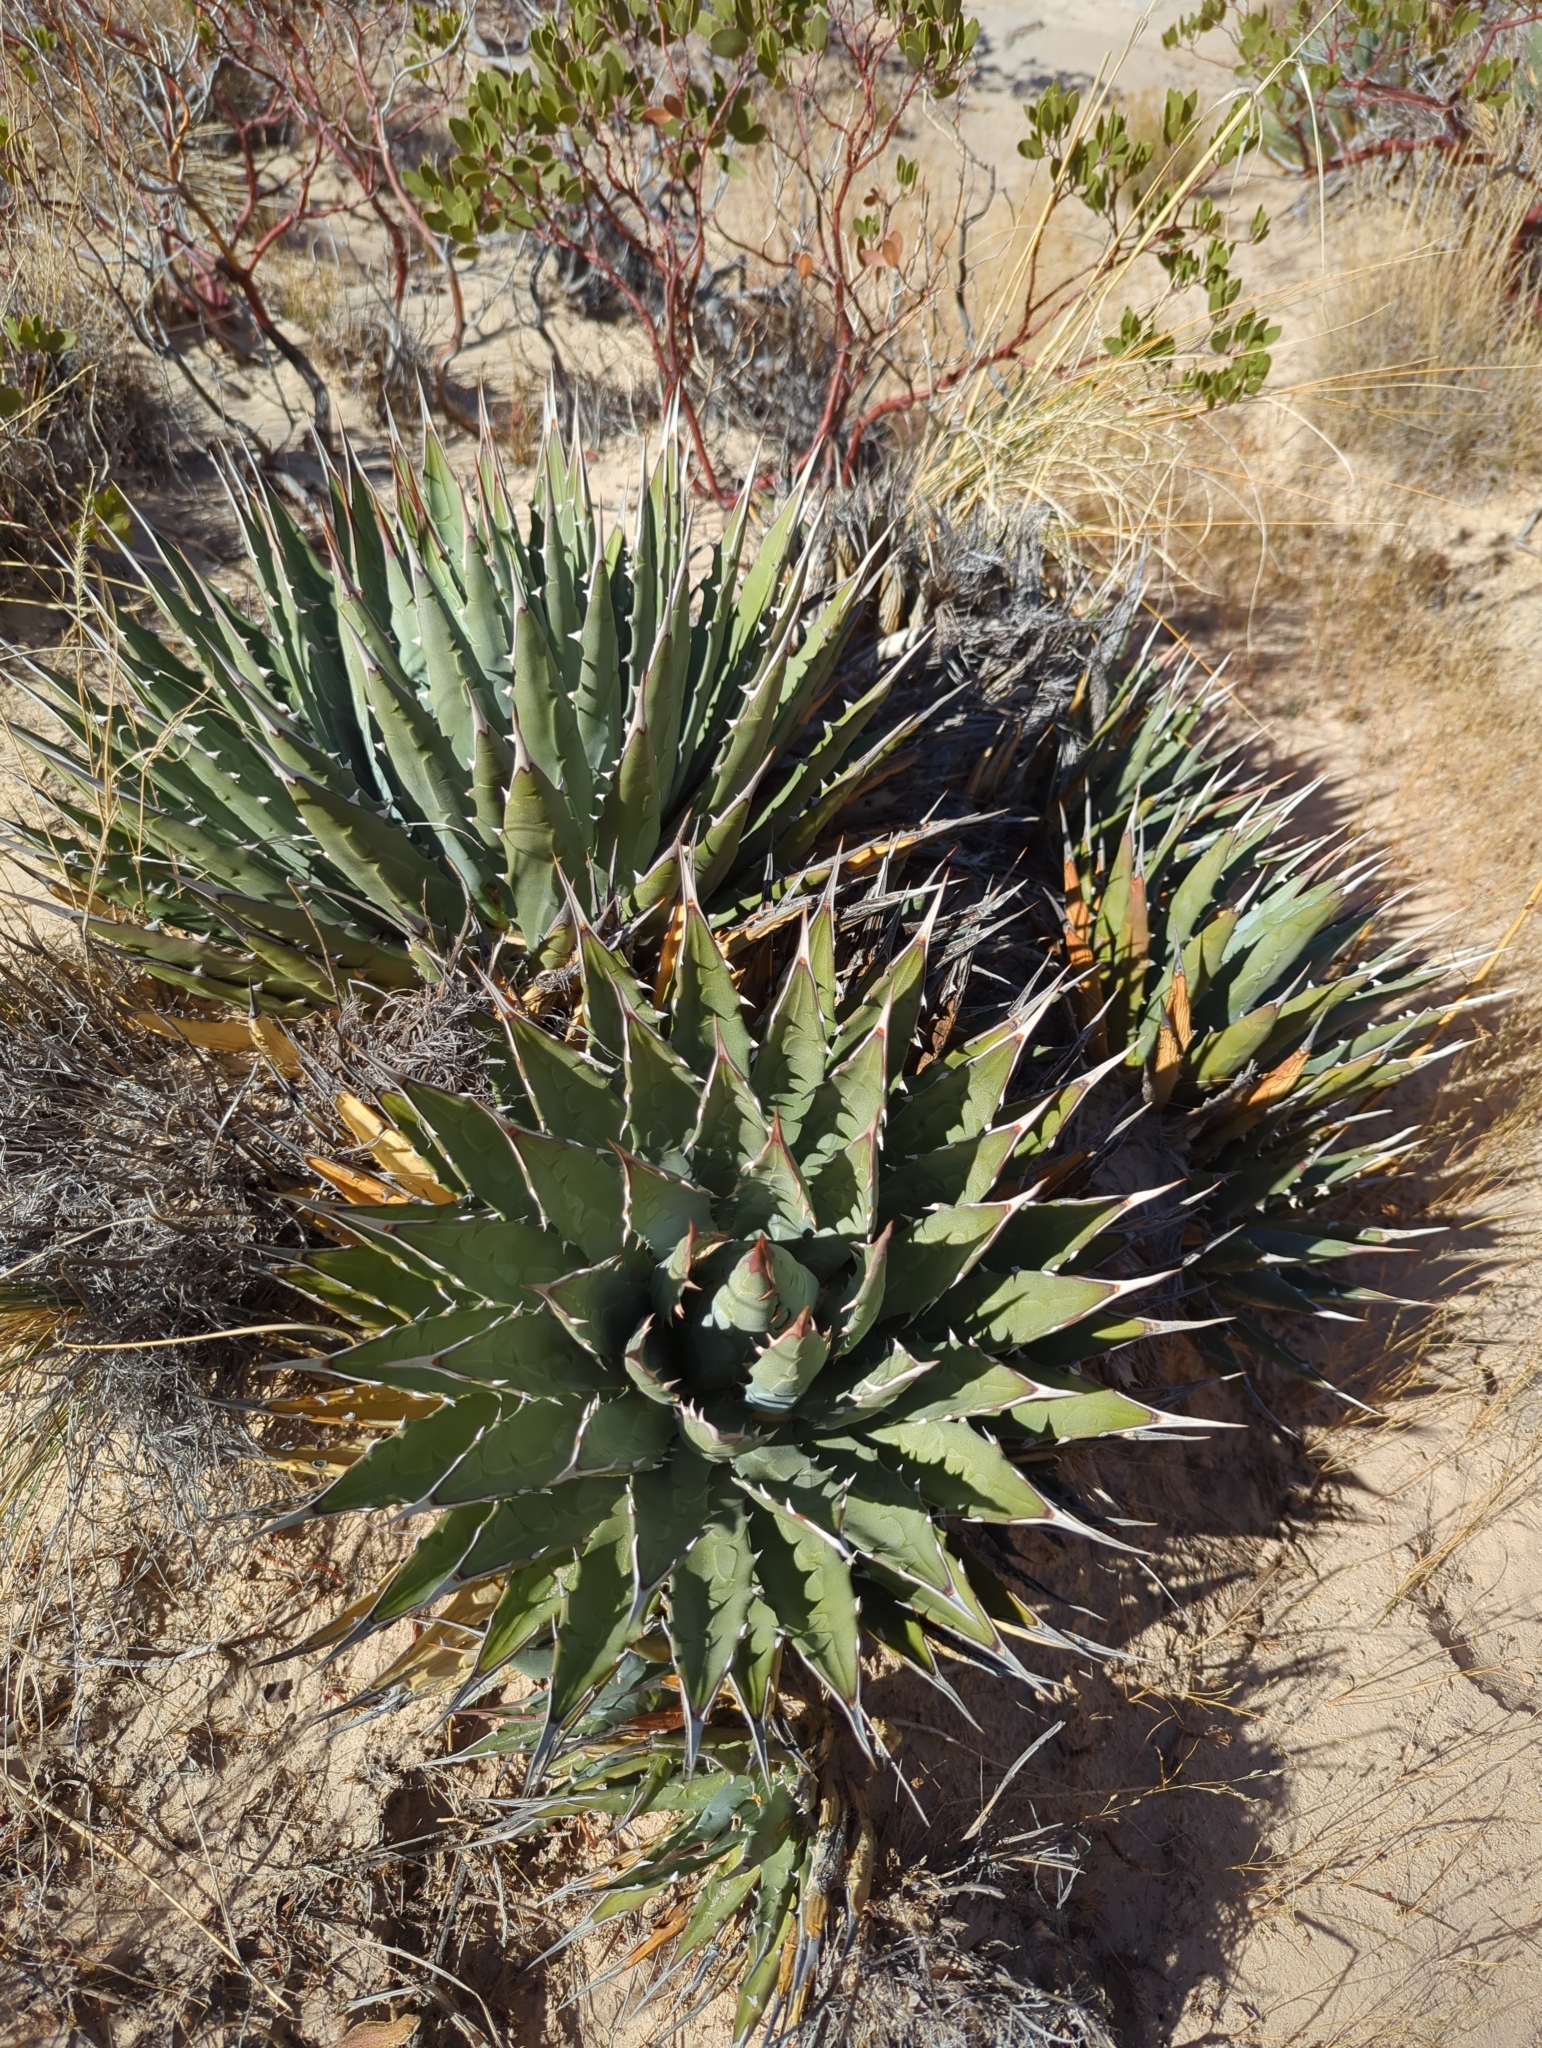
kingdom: Plantae
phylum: Tracheophyta
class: Liliopsida
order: Asparagales
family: Asparagaceae
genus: Agave
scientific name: Agave utahensis
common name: Utah agave
